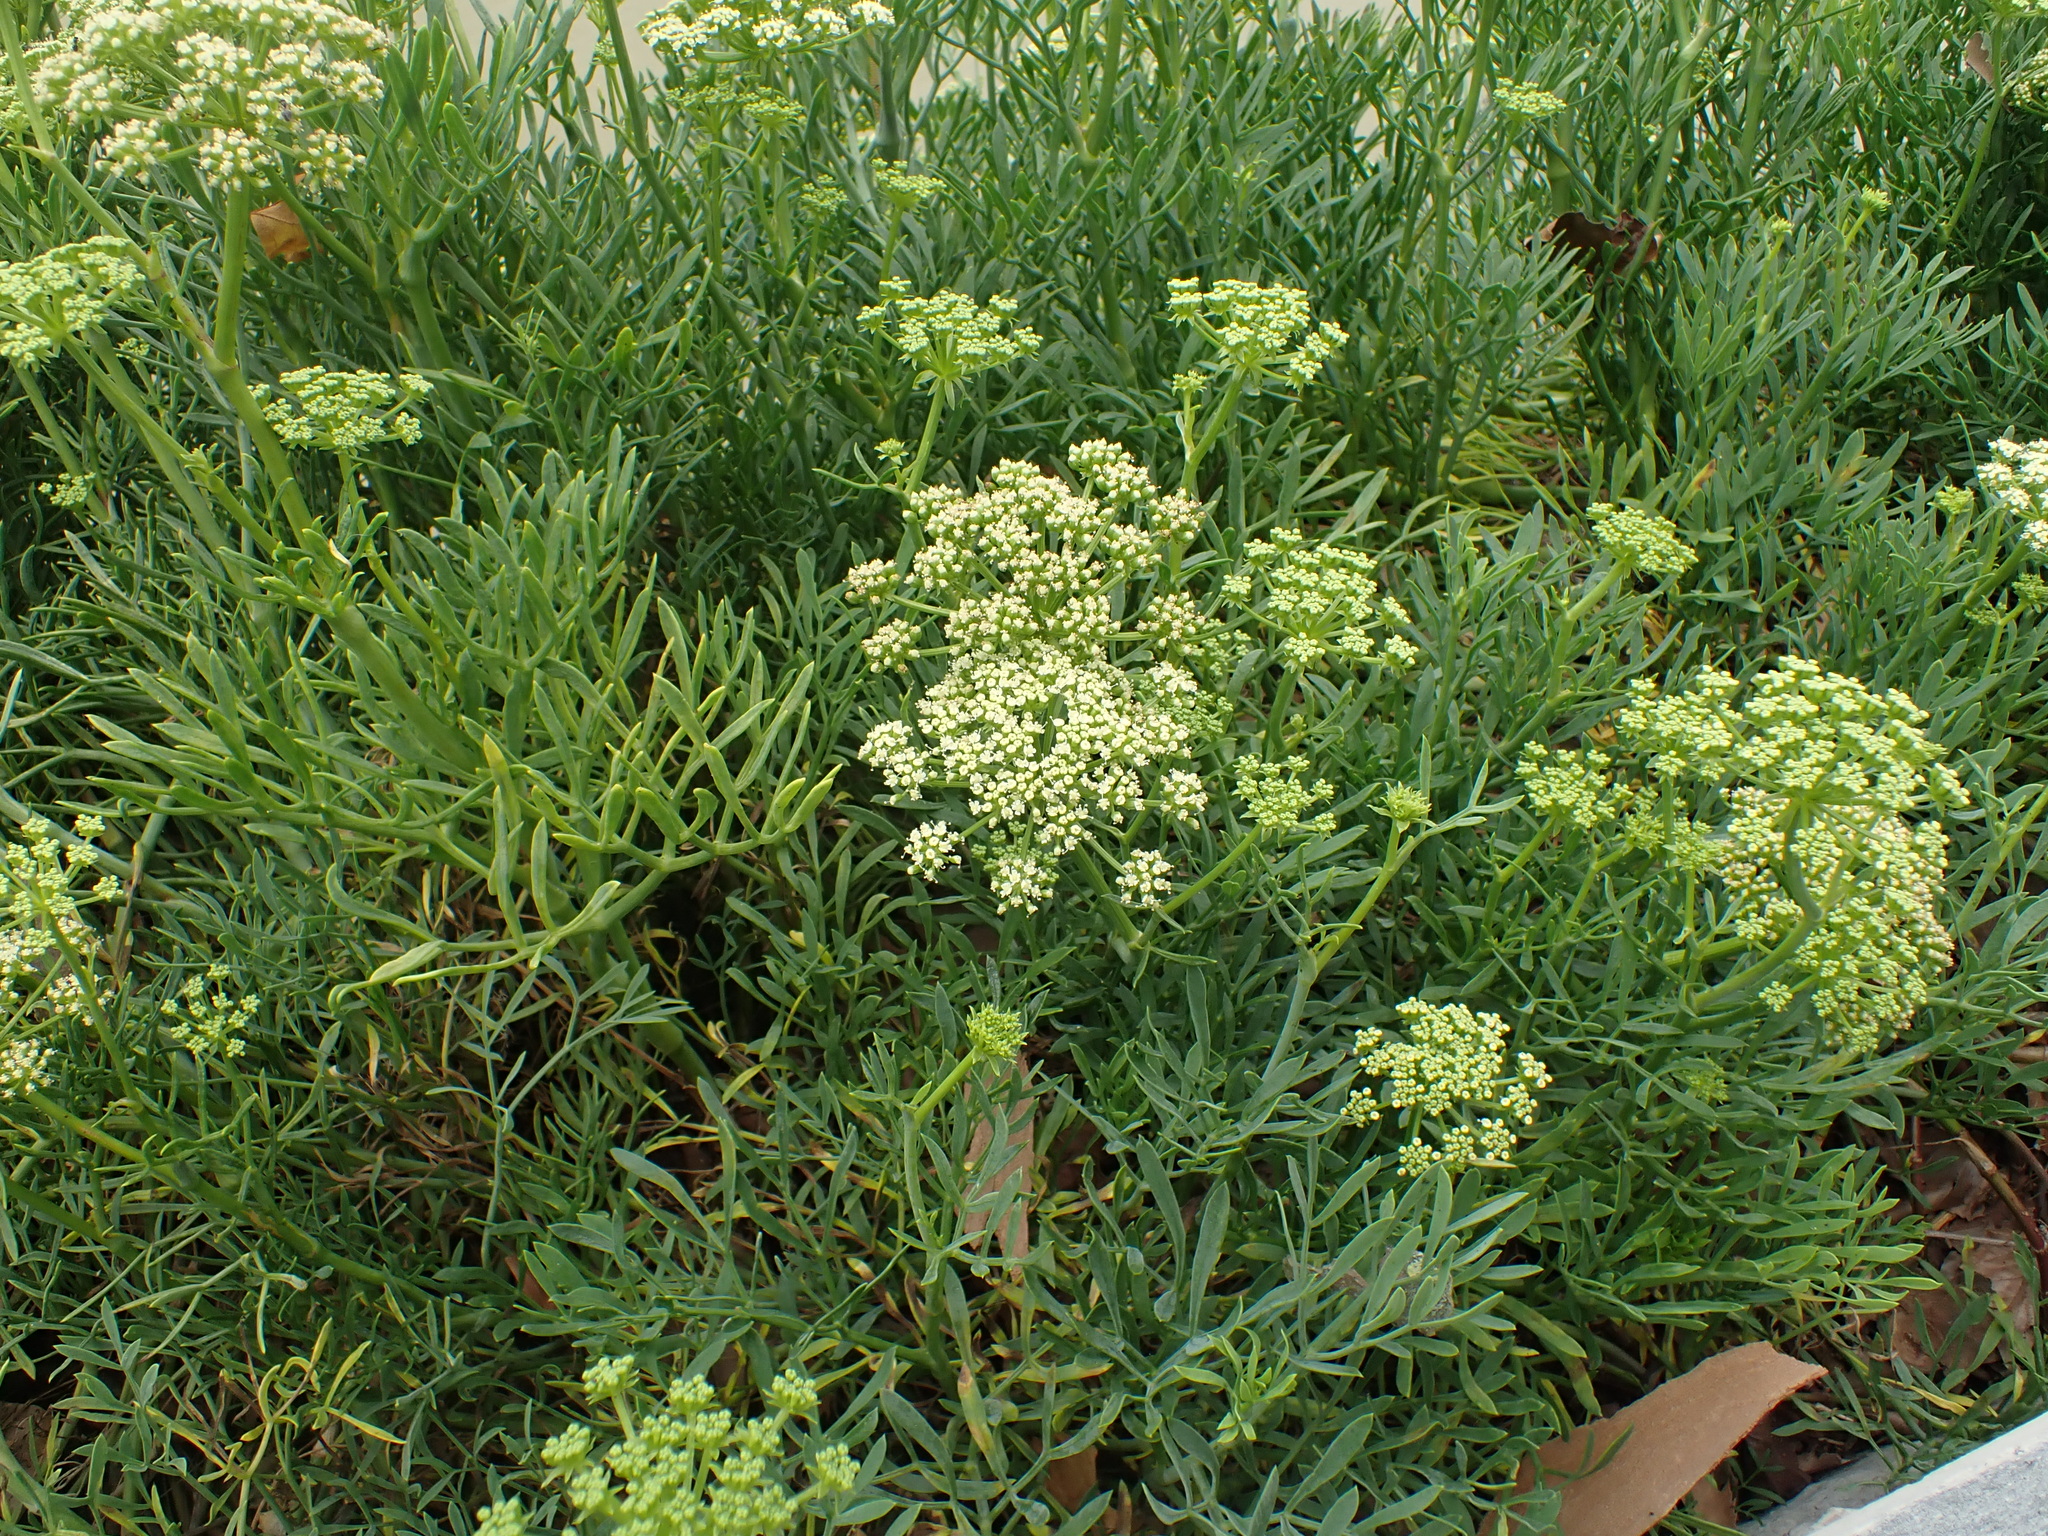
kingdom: Plantae
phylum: Tracheophyta
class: Magnoliopsida
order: Apiales
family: Apiaceae
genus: Crithmum
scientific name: Crithmum maritimum
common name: Rock samphire
